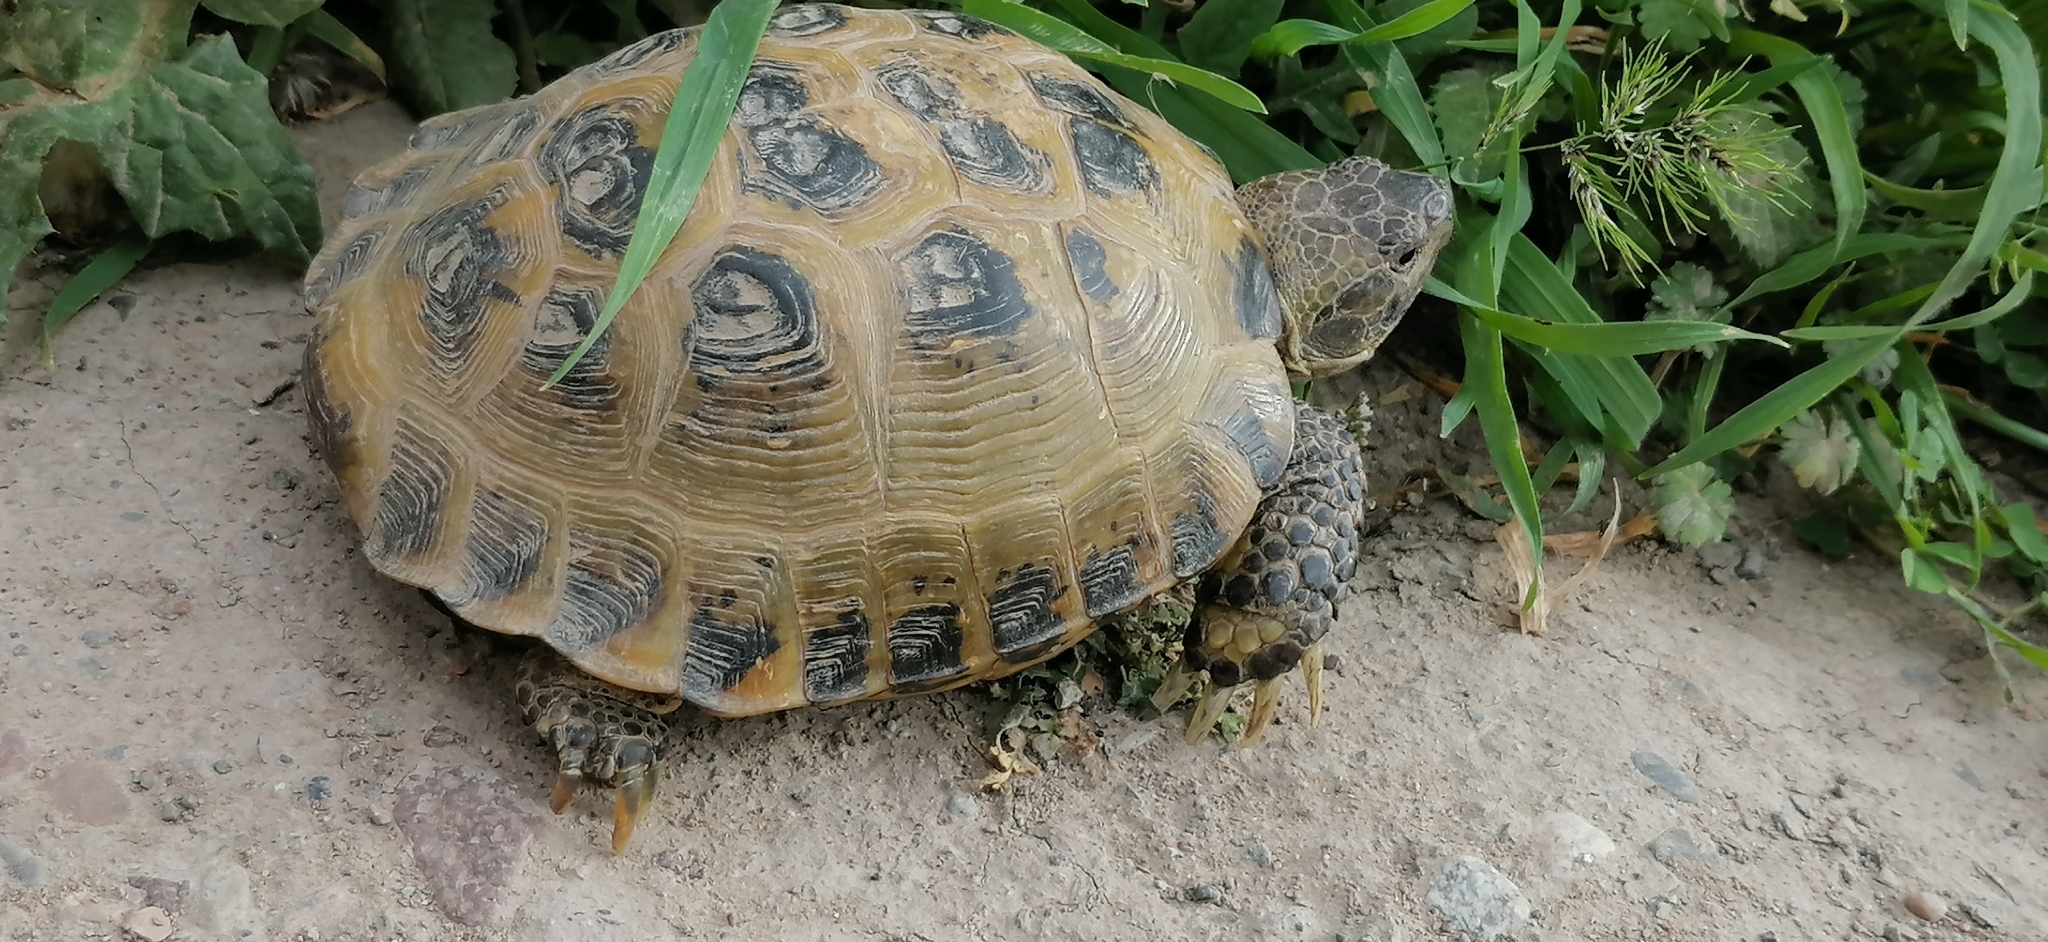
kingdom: Animalia
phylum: Chordata
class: Testudines
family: Testudinidae
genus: Testudo
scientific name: Testudo horsfieldii
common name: Central asia tortoise
